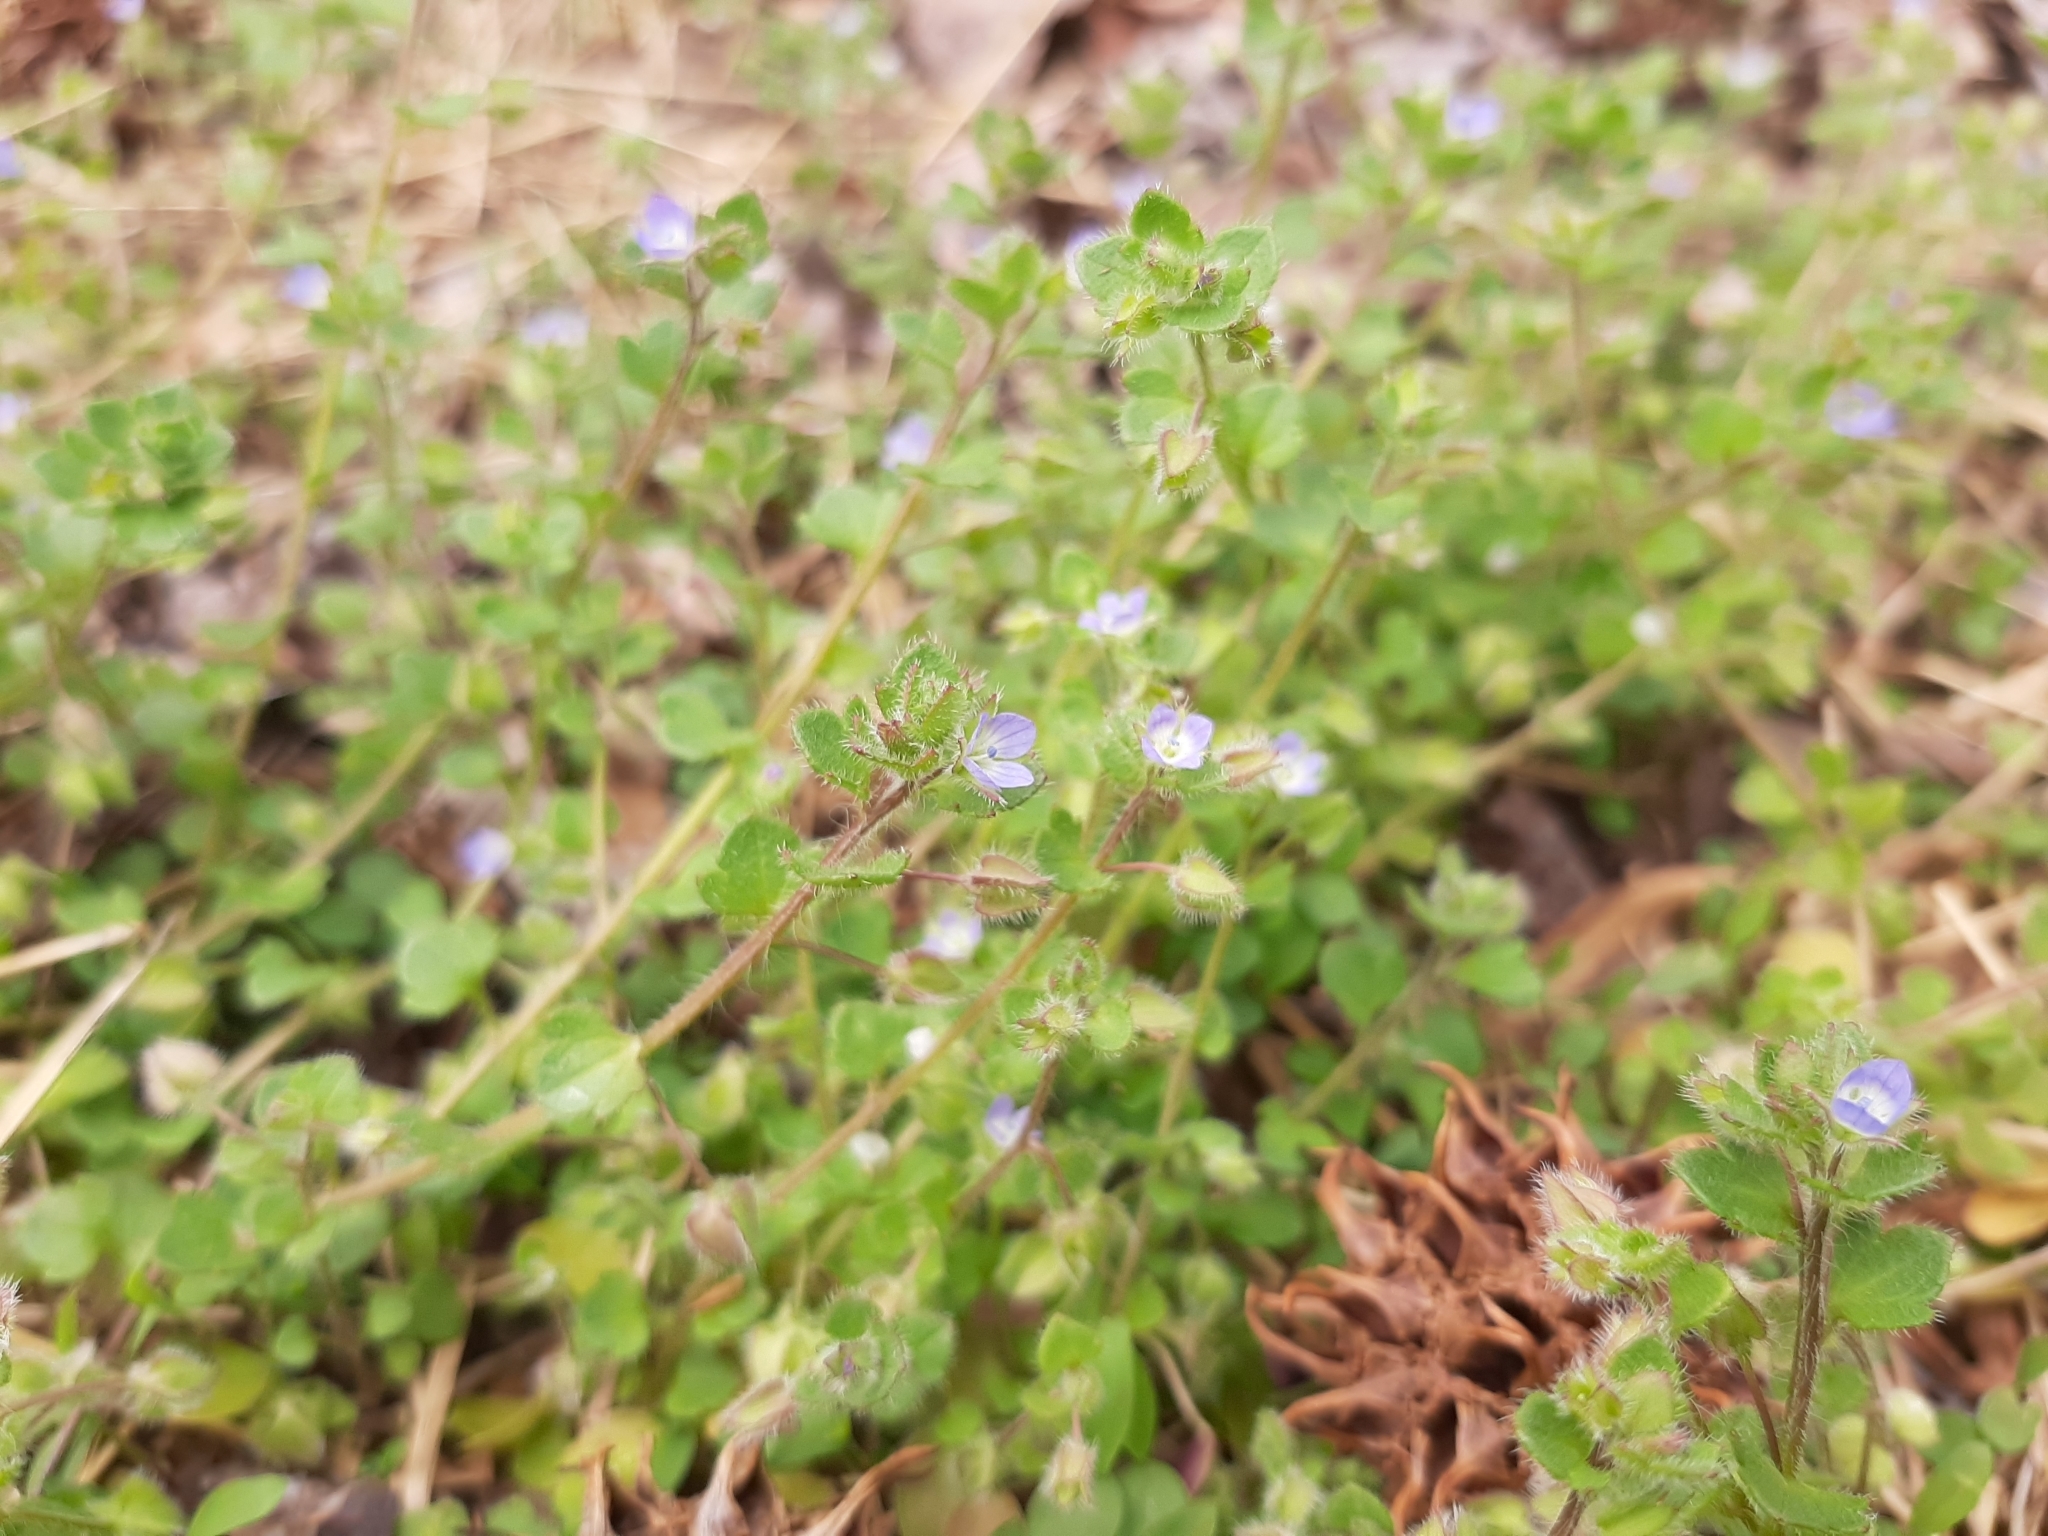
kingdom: Plantae
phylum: Tracheophyta
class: Magnoliopsida
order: Lamiales
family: Plantaginaceae
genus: Veronica
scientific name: Veronica hederifolia
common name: Ivy-leaved speedwell
